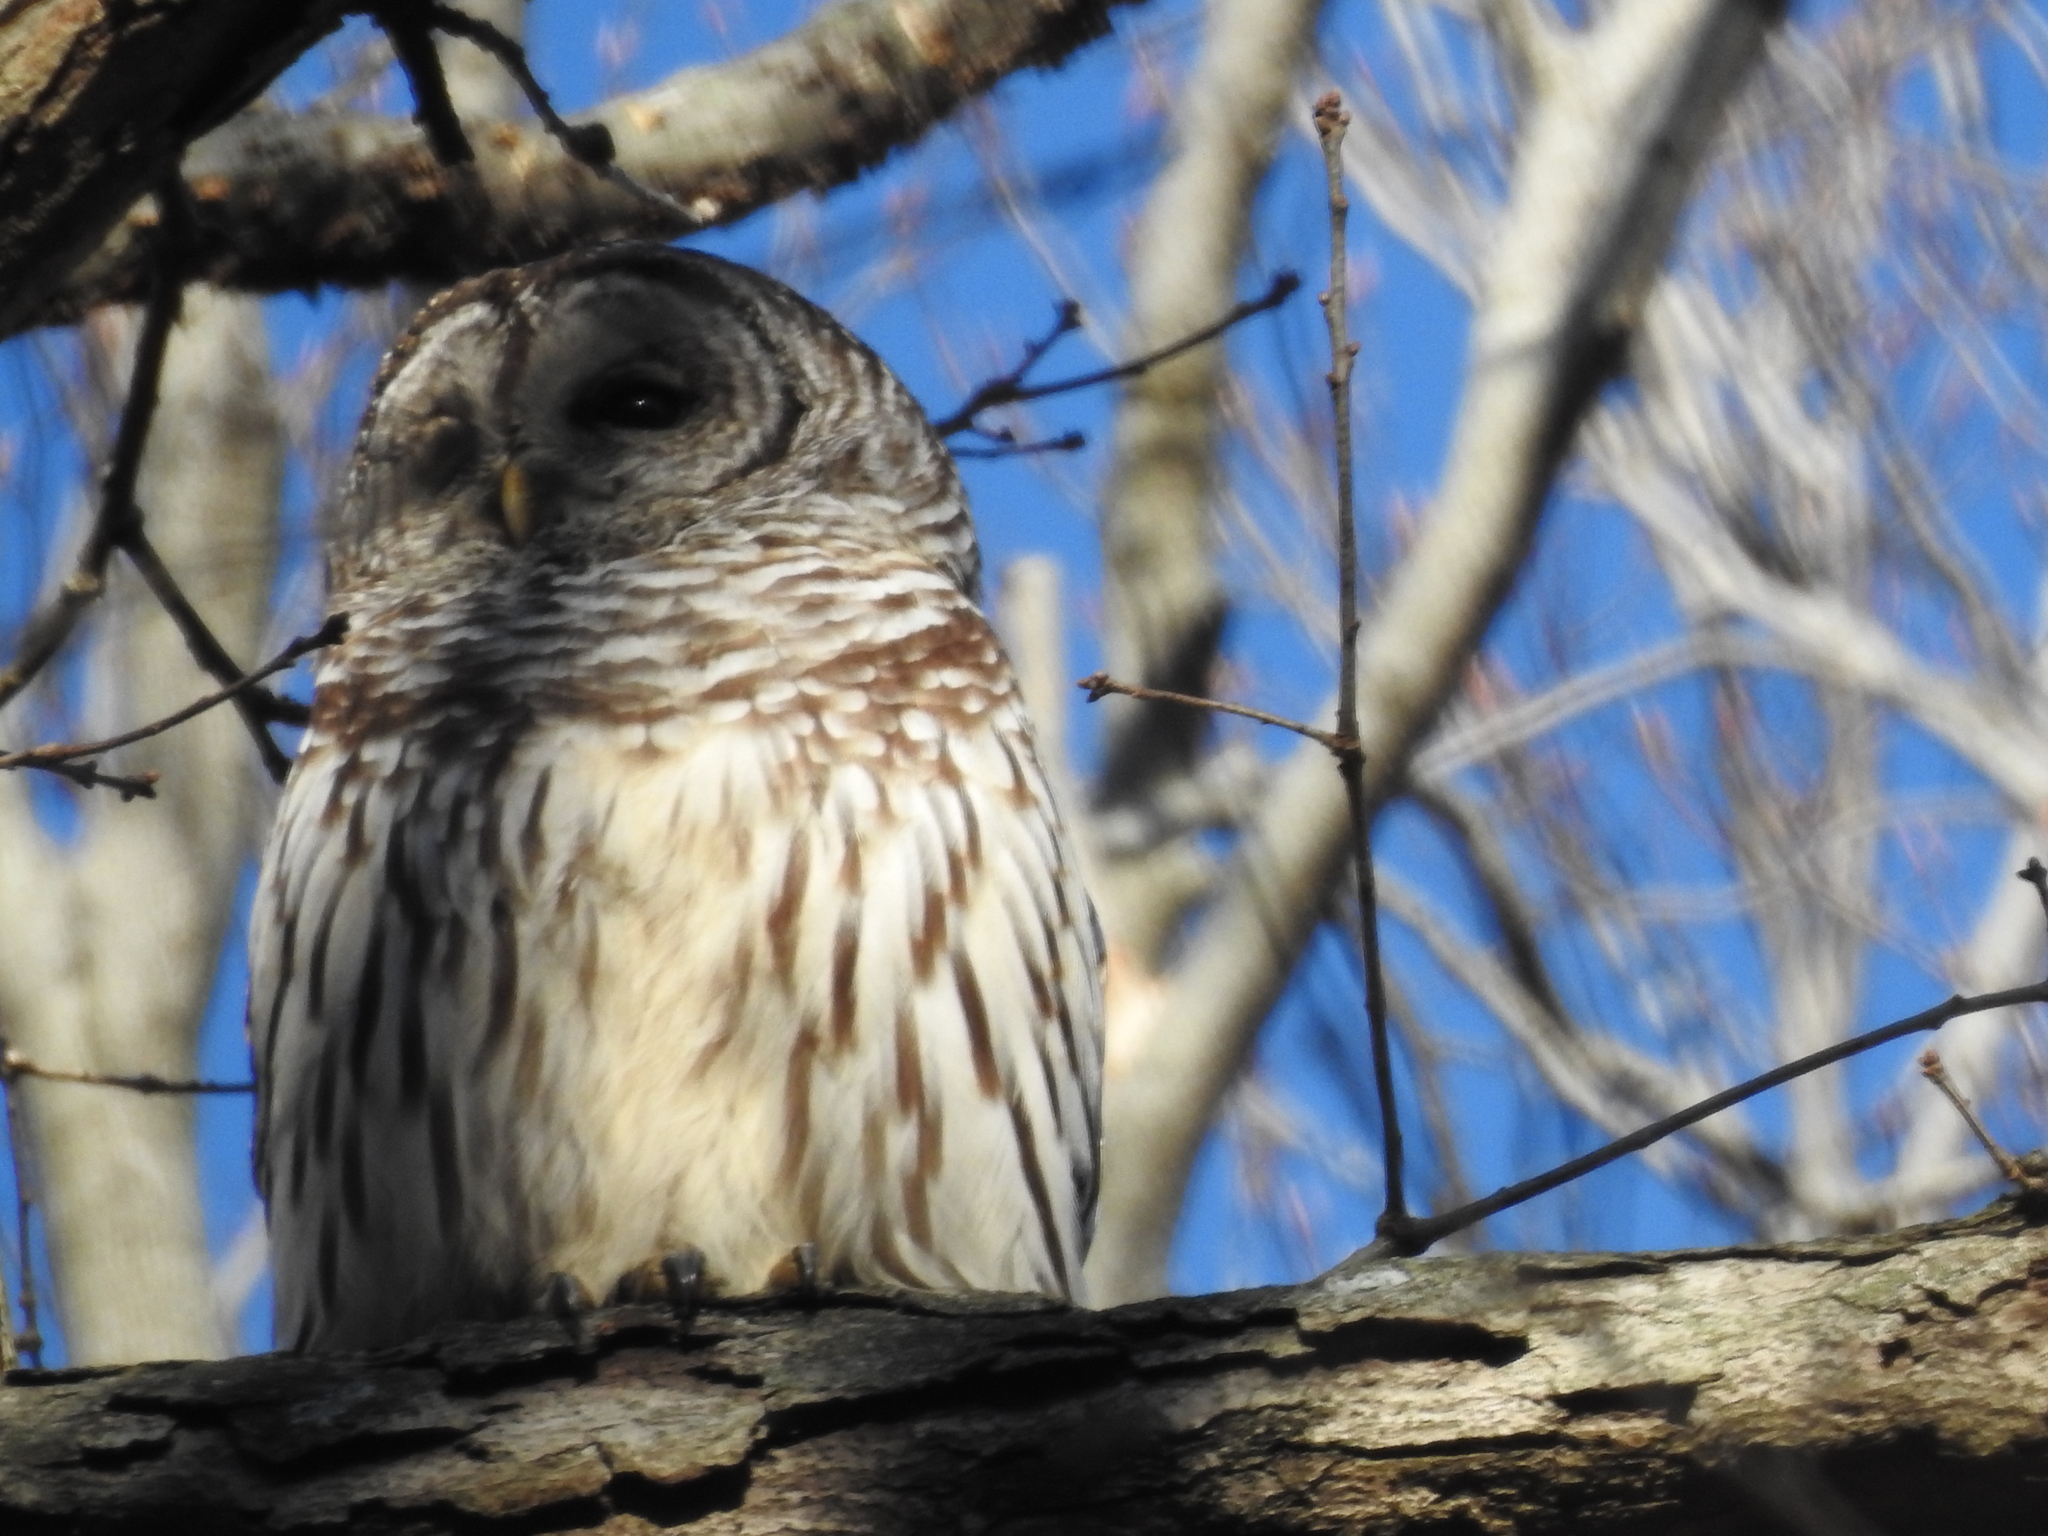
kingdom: Animalia
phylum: Chordata
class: Aves
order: Strigiformes
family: Strigidae
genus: Strix
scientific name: Strix varia
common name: Barred owl
